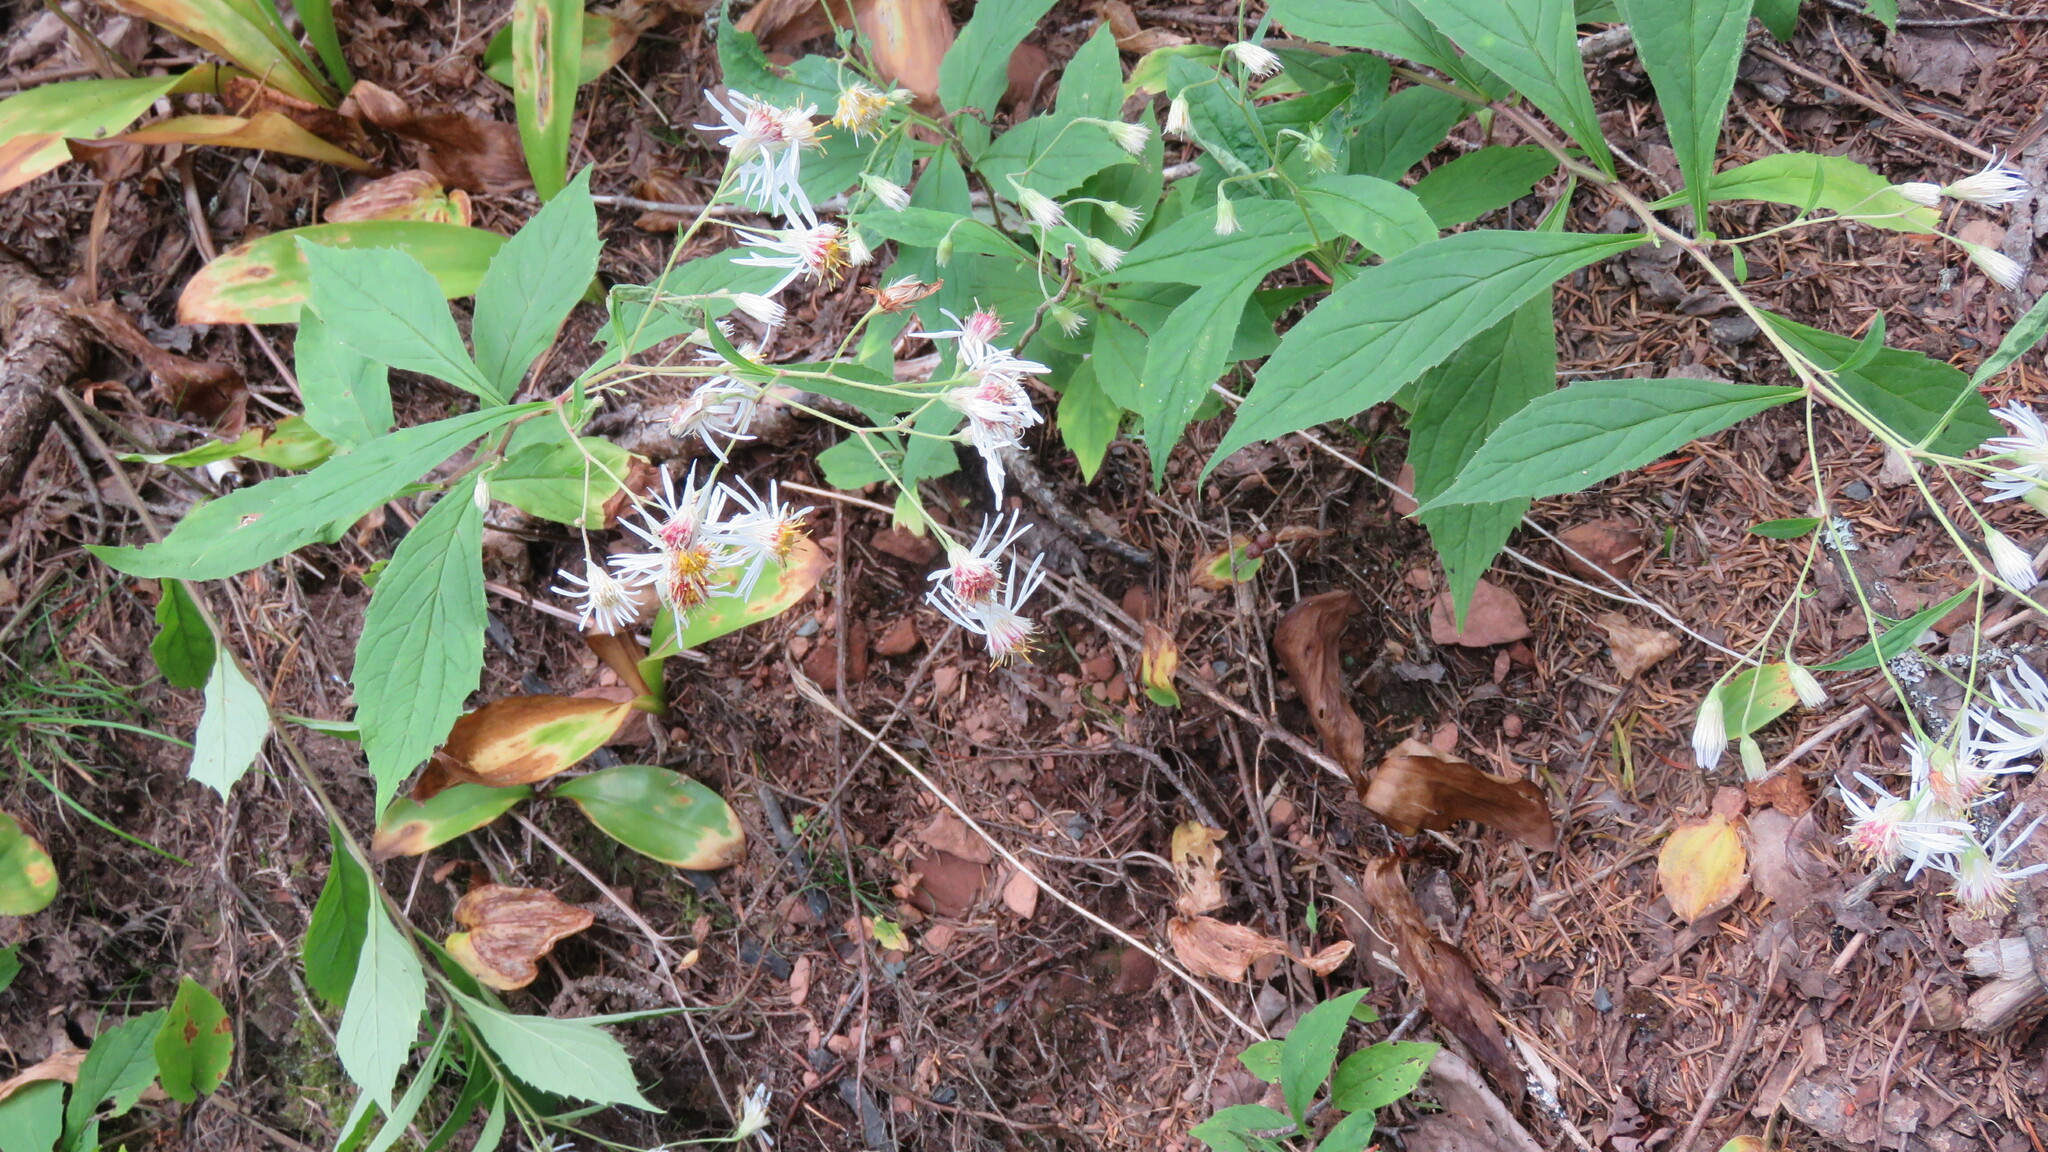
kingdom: Plantae
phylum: Tracheophyta
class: Magnoliopsida
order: Asterales
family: Asteraceae
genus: Oclemena
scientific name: Oclemena acuminata
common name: Mountain aster
